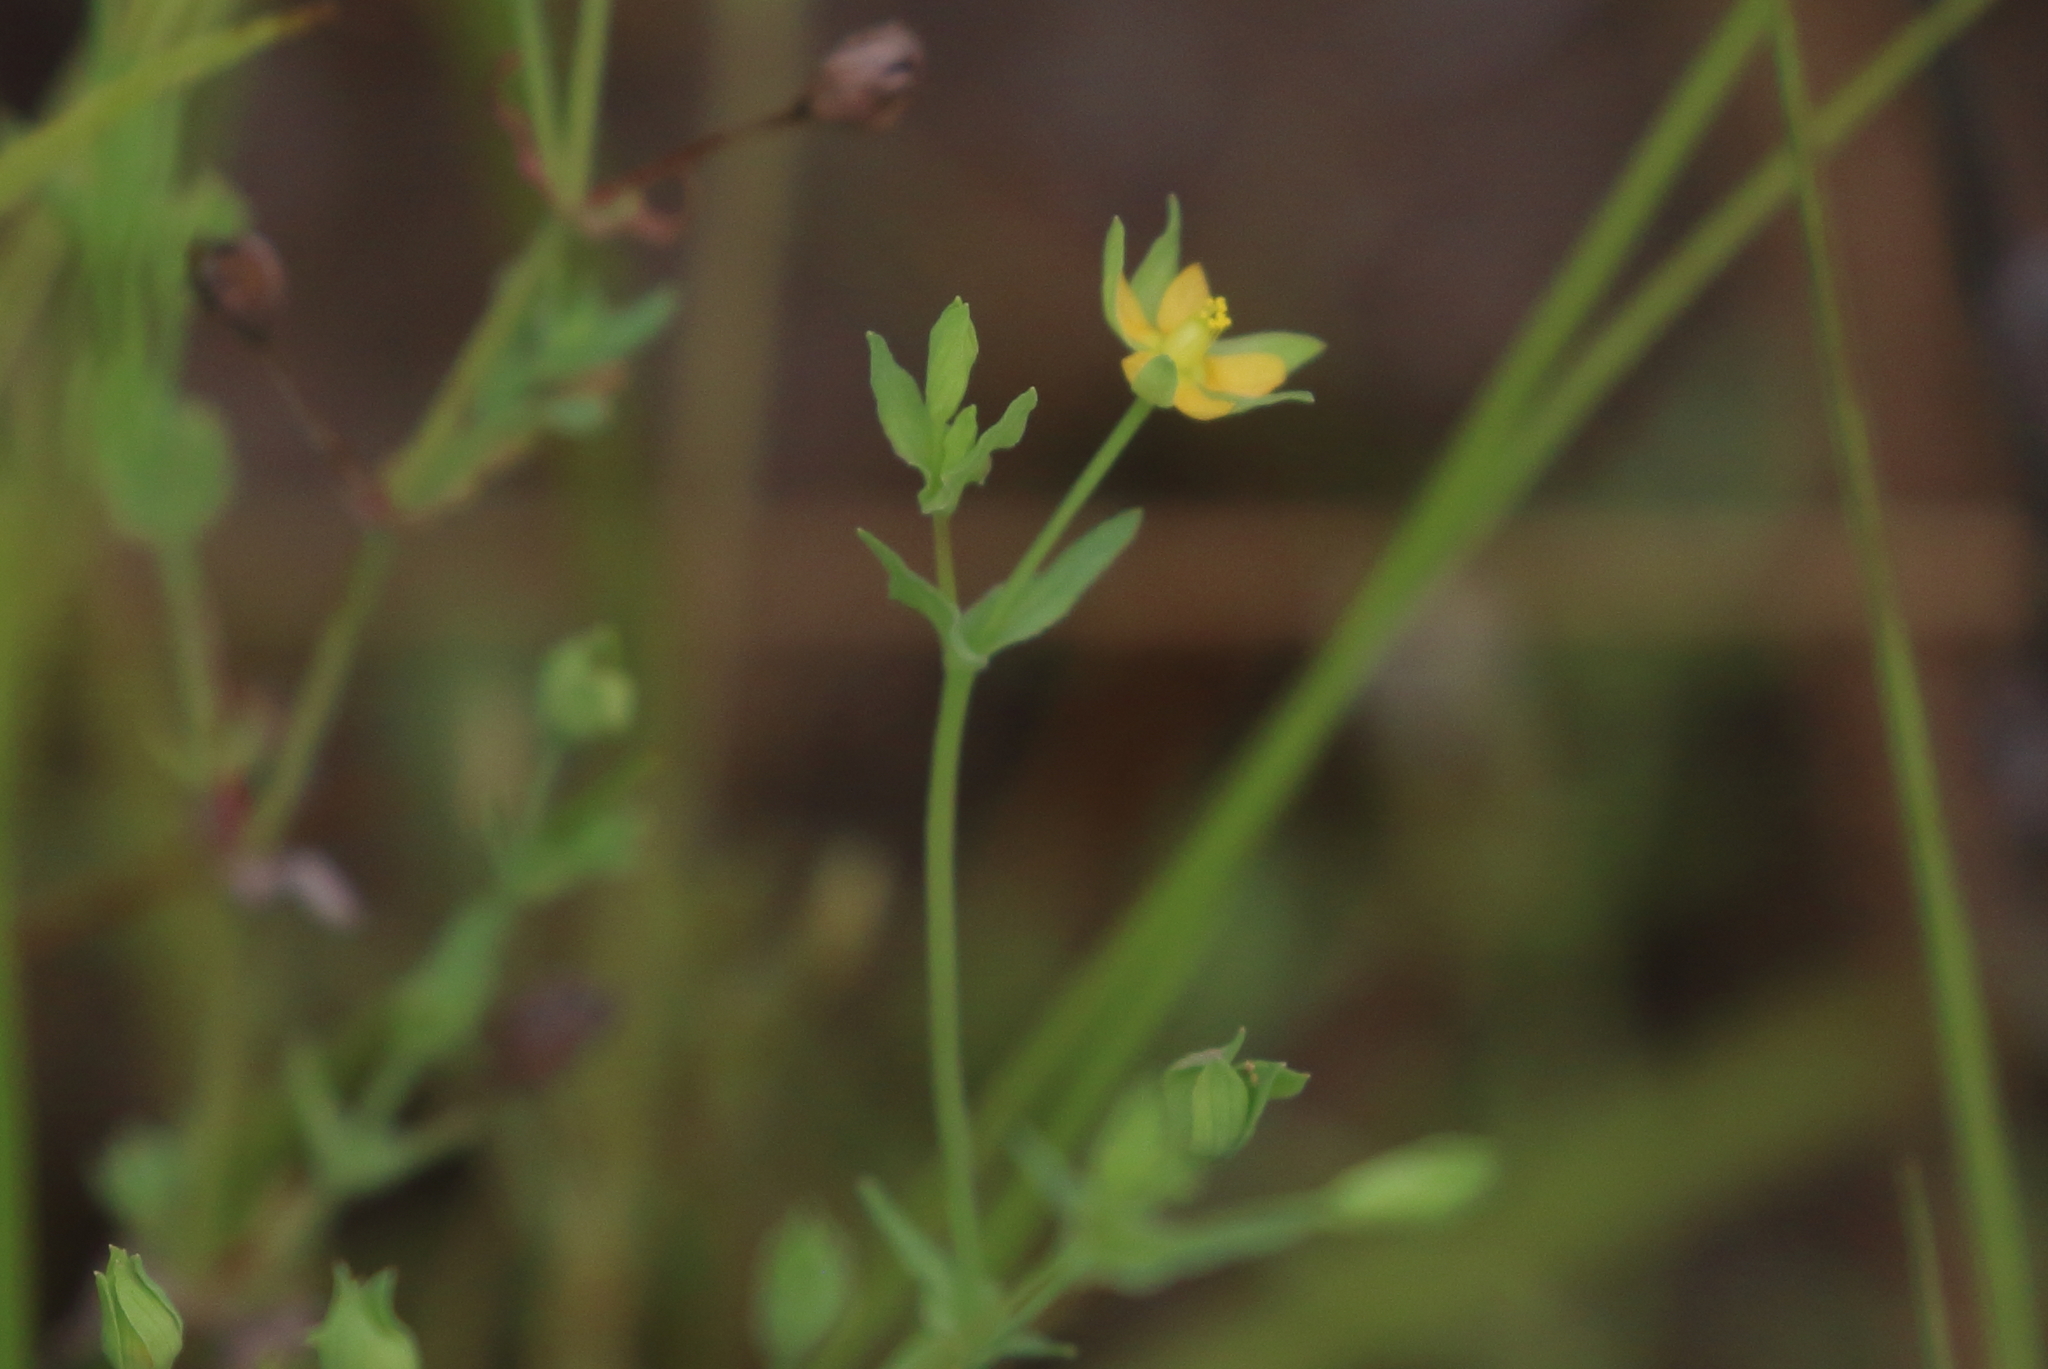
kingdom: Plantae
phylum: Tracheophyta
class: Magnoliopsida
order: Malpighiales
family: Hypericaceae
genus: Hypericum
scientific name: Hypericum gramineum
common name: Grassy st. johnswort
